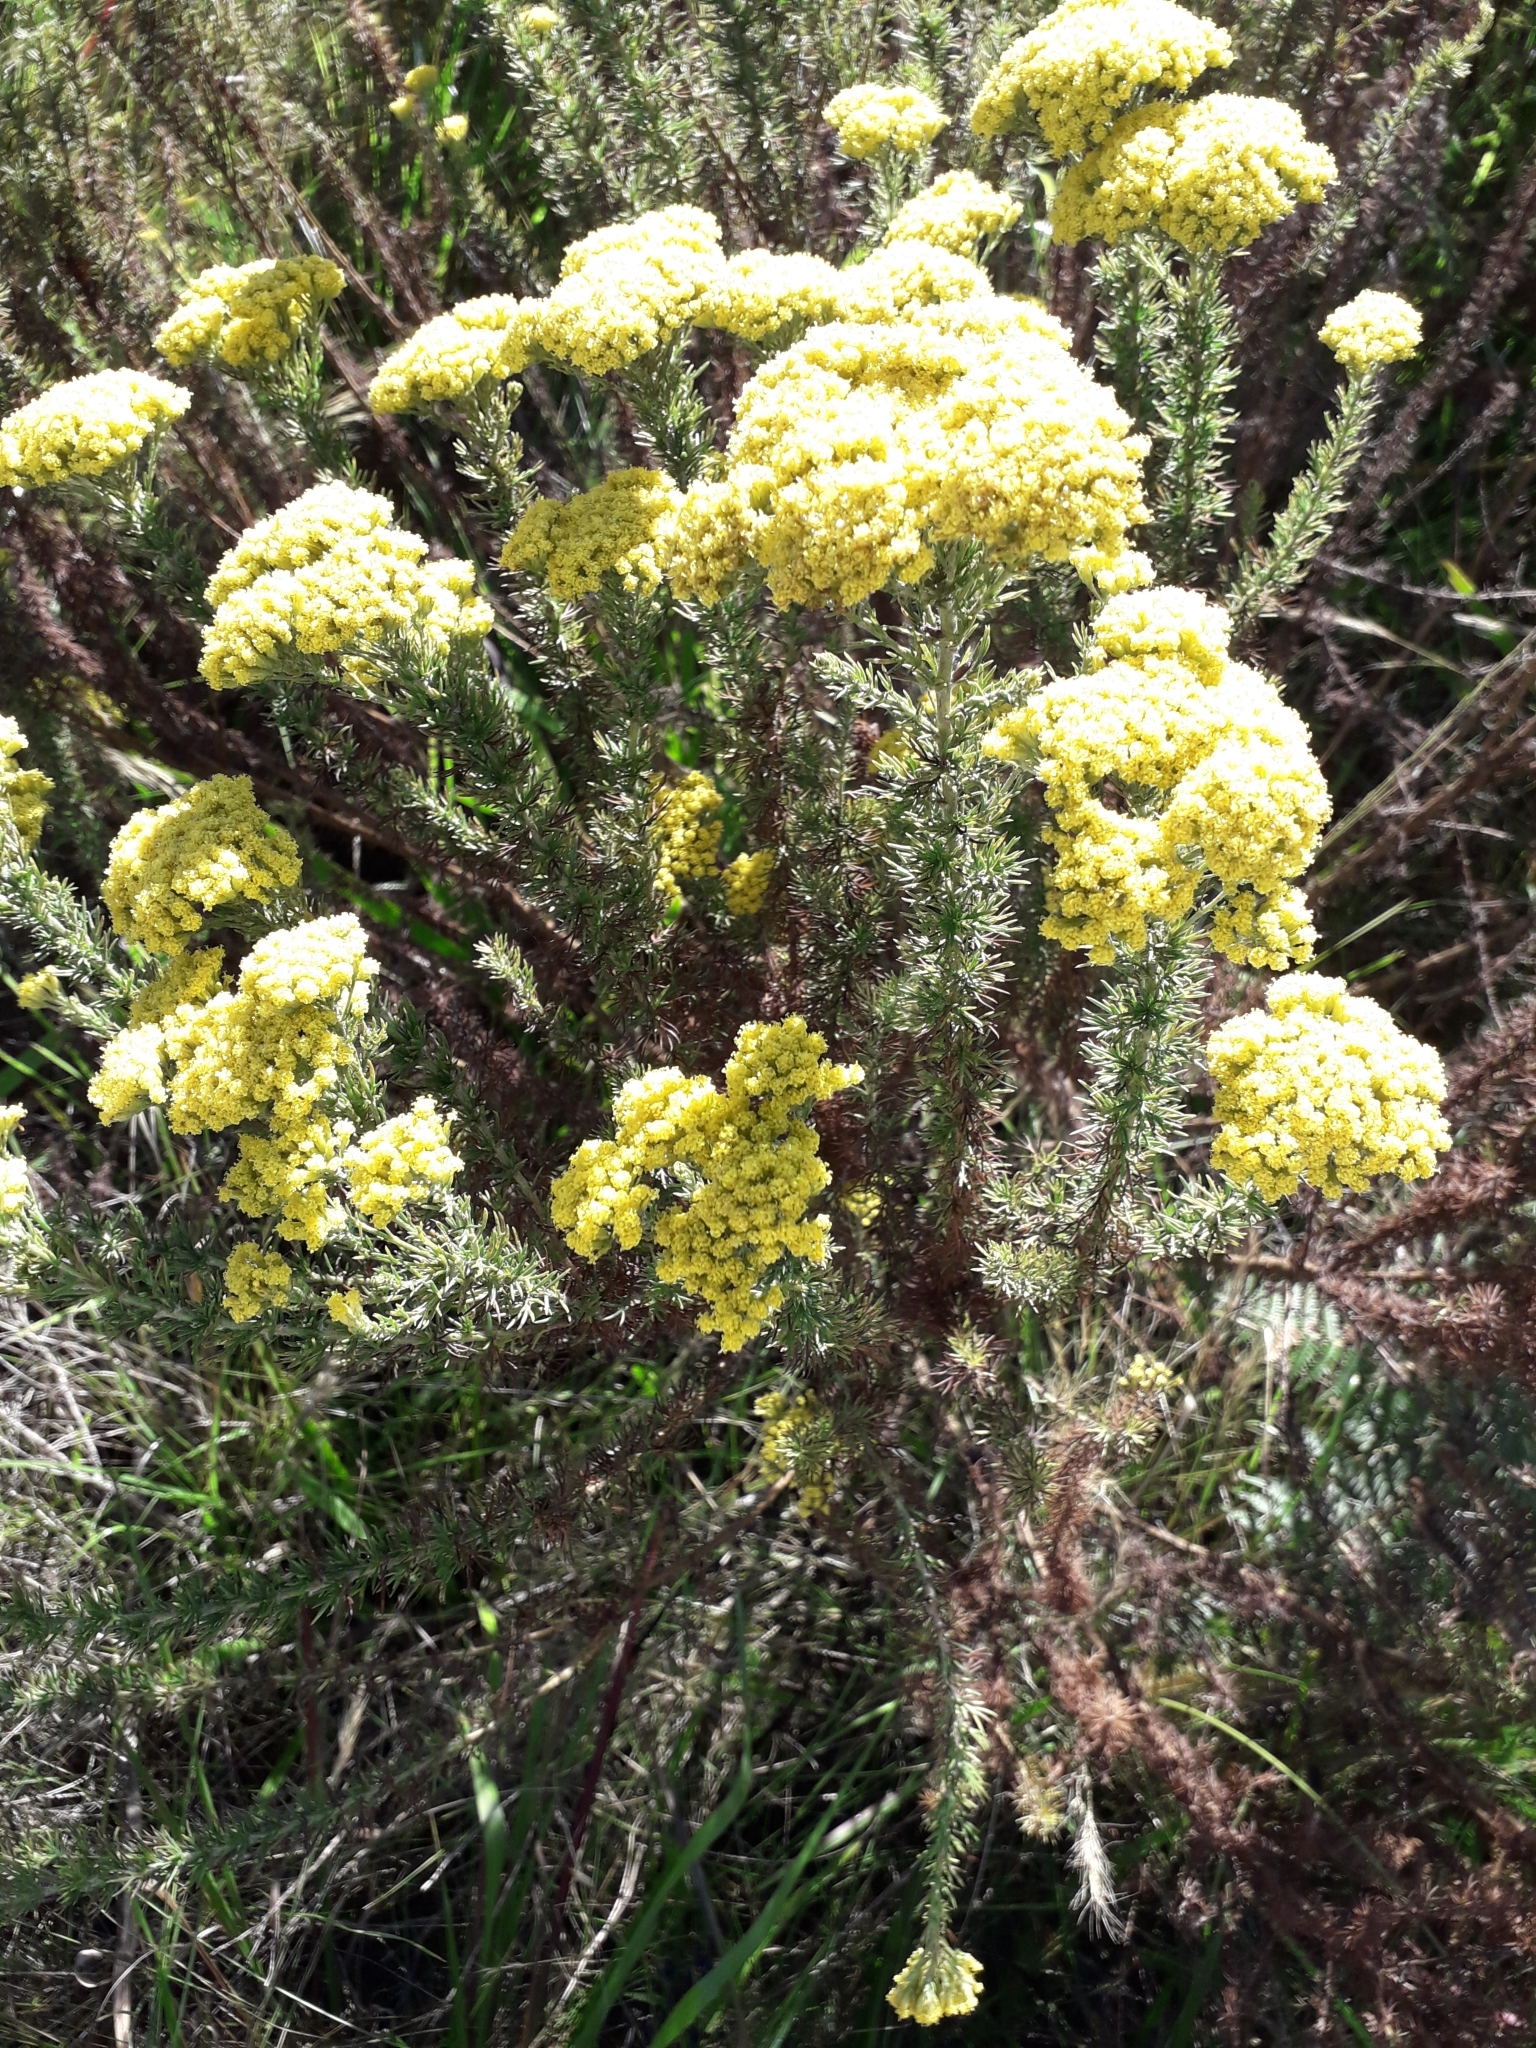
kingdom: Plantae
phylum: Tracheophyta
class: Magnoliopsida
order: Asterales
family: Asteraceae
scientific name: Asteraceae
